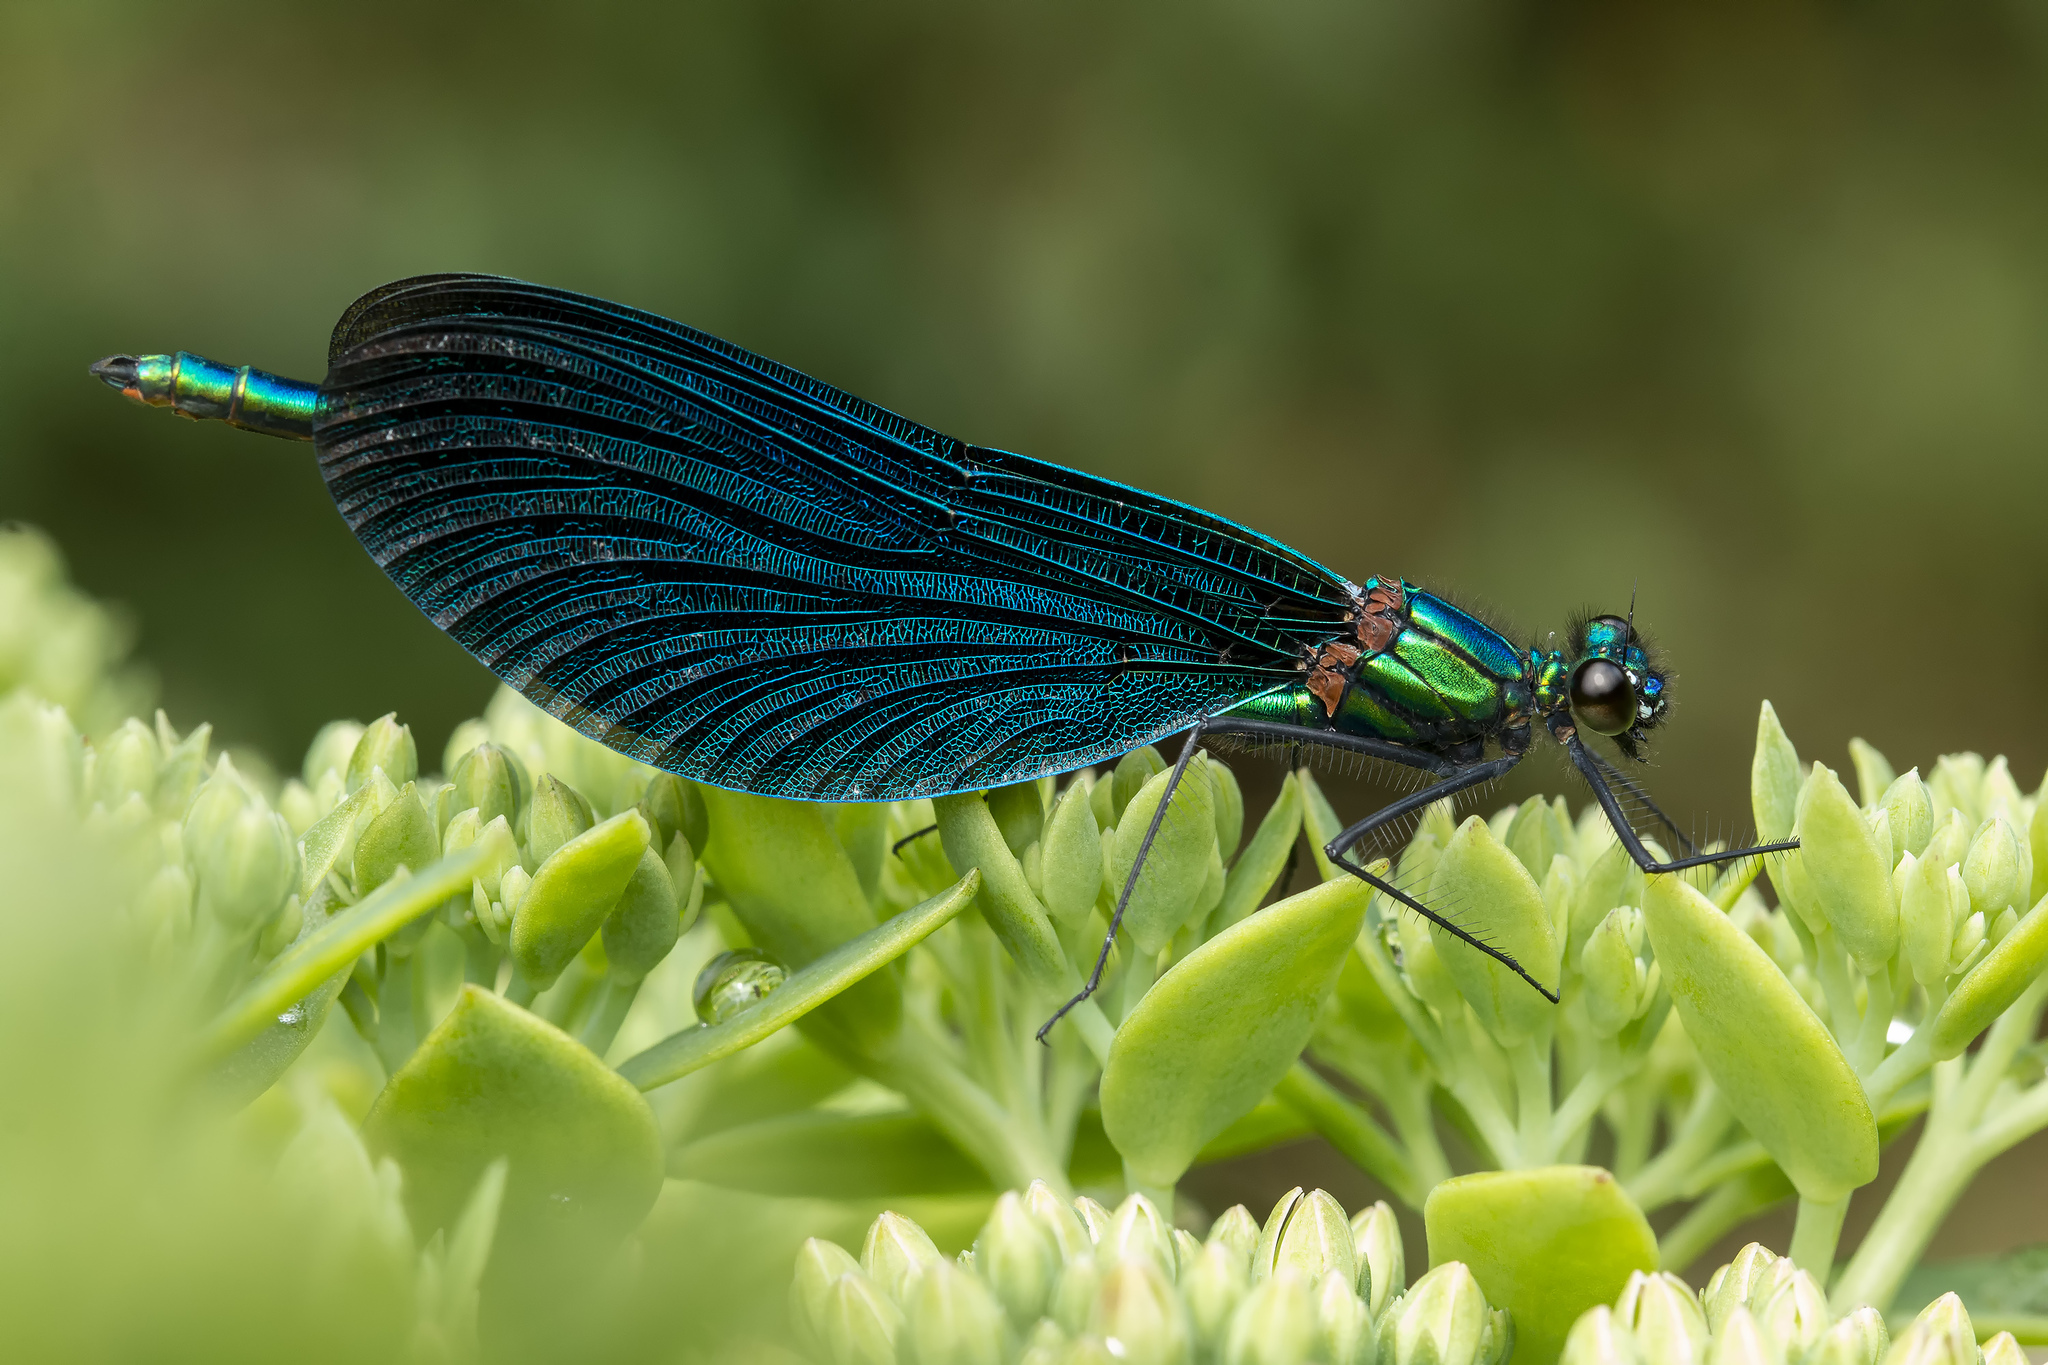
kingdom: Animalia
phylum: Arthropoda
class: Insecta
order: Odonata
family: Calopterygidae
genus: Calopteryx
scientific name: Calopteryx virgo
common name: Beautiful demoiselle
